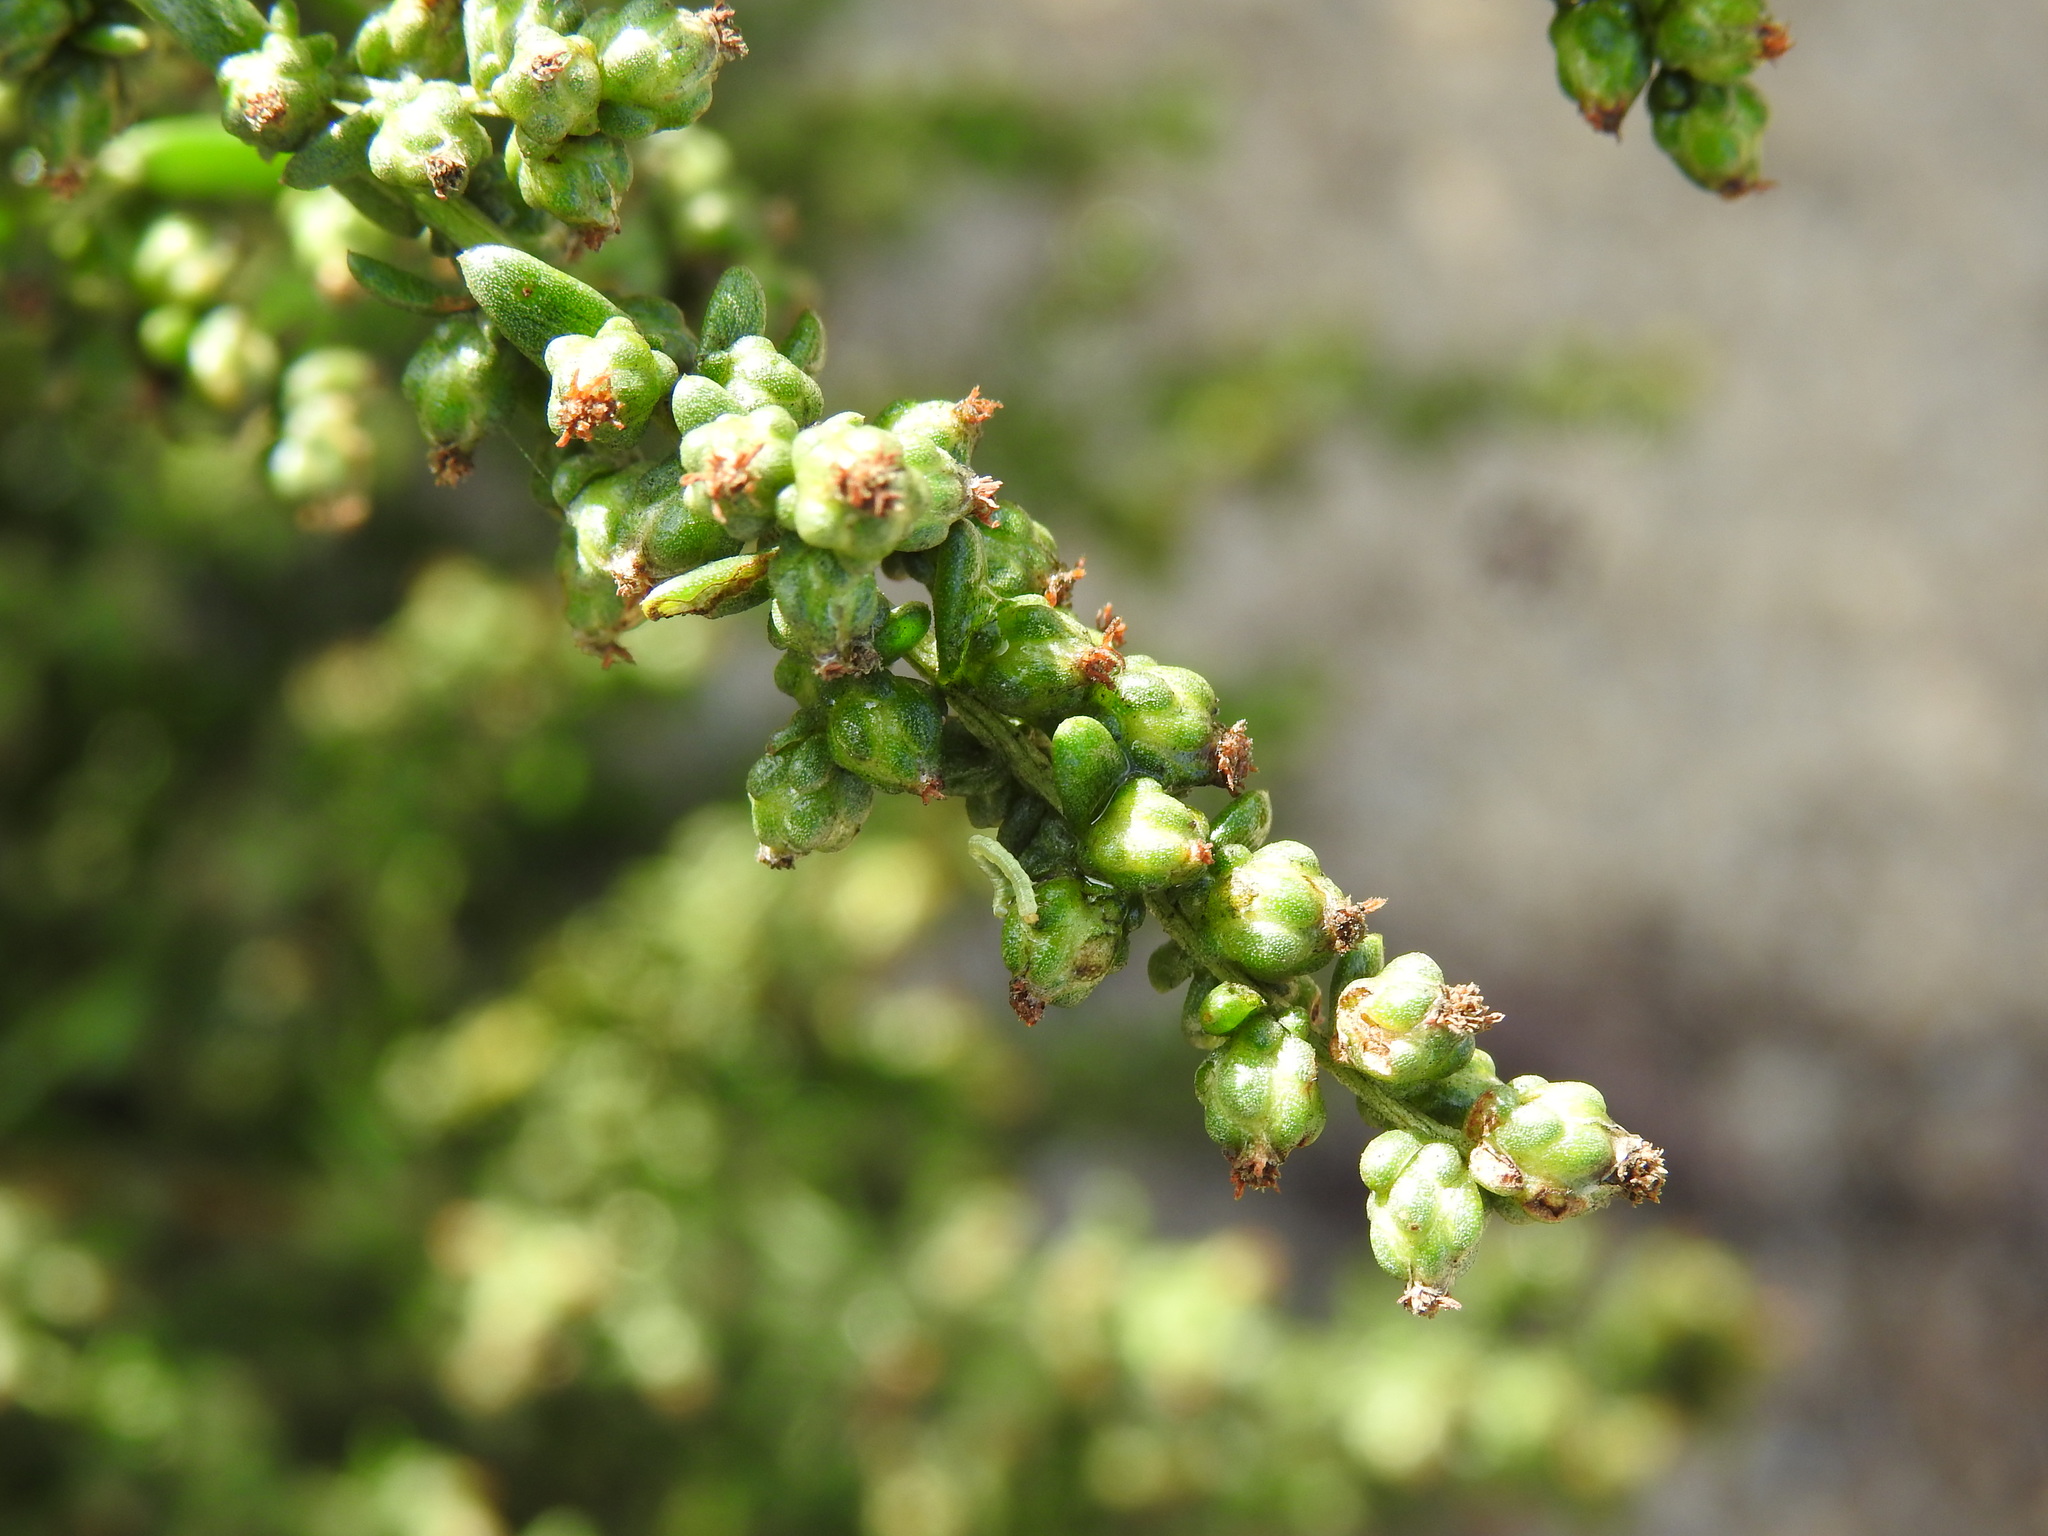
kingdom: Plantae
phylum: Tracheophyta
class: Magnoliopsida
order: Asterales
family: Asteraceae
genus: Artemisia
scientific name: Artemisia crithmifolia
